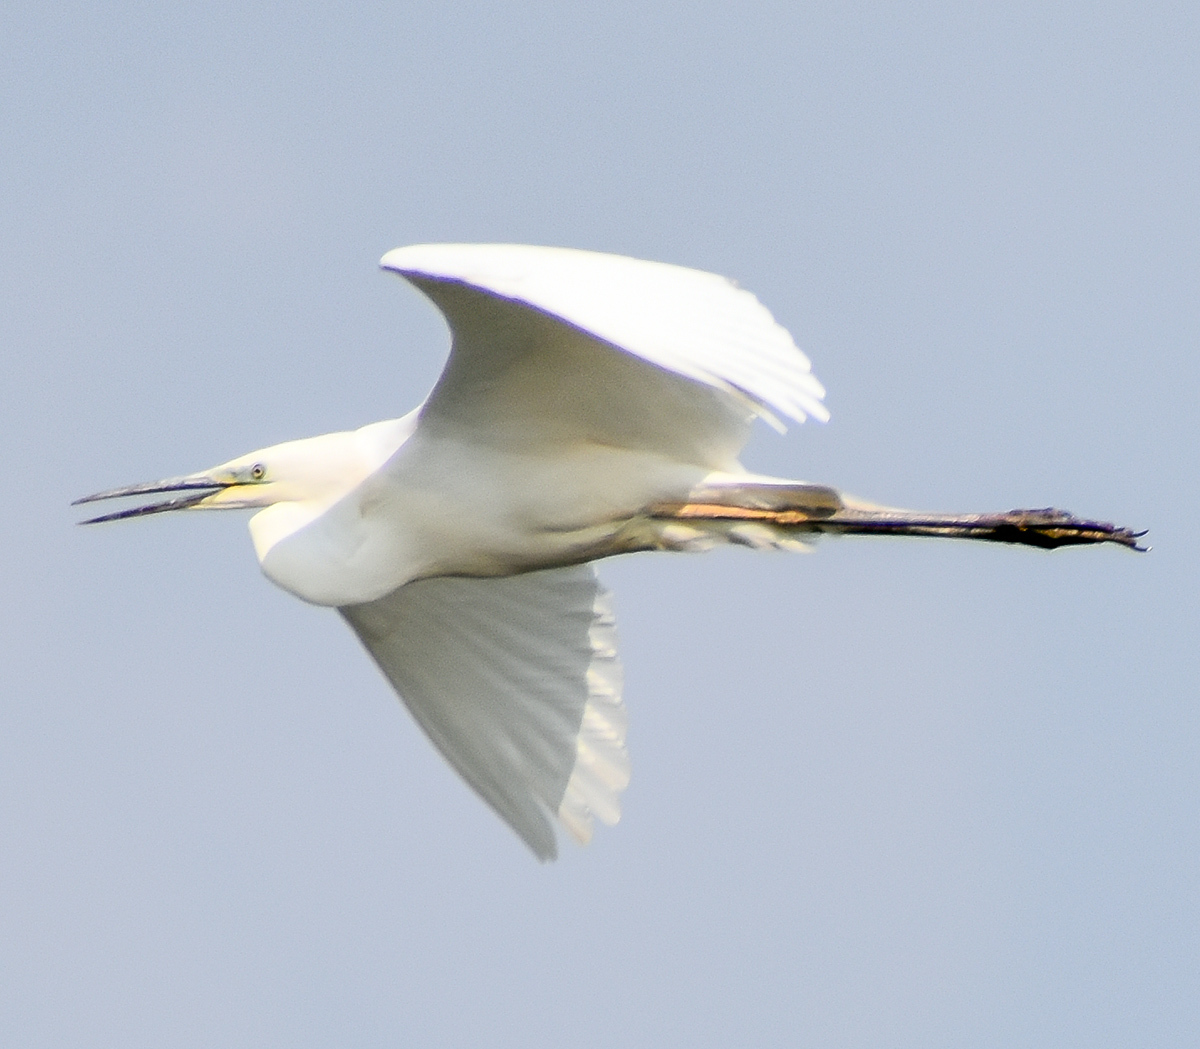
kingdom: Animalia
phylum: Chordata
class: Aves
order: Pelecaniformes
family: Ardeidae
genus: Ardea
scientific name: Ardea alba
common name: Great egret
